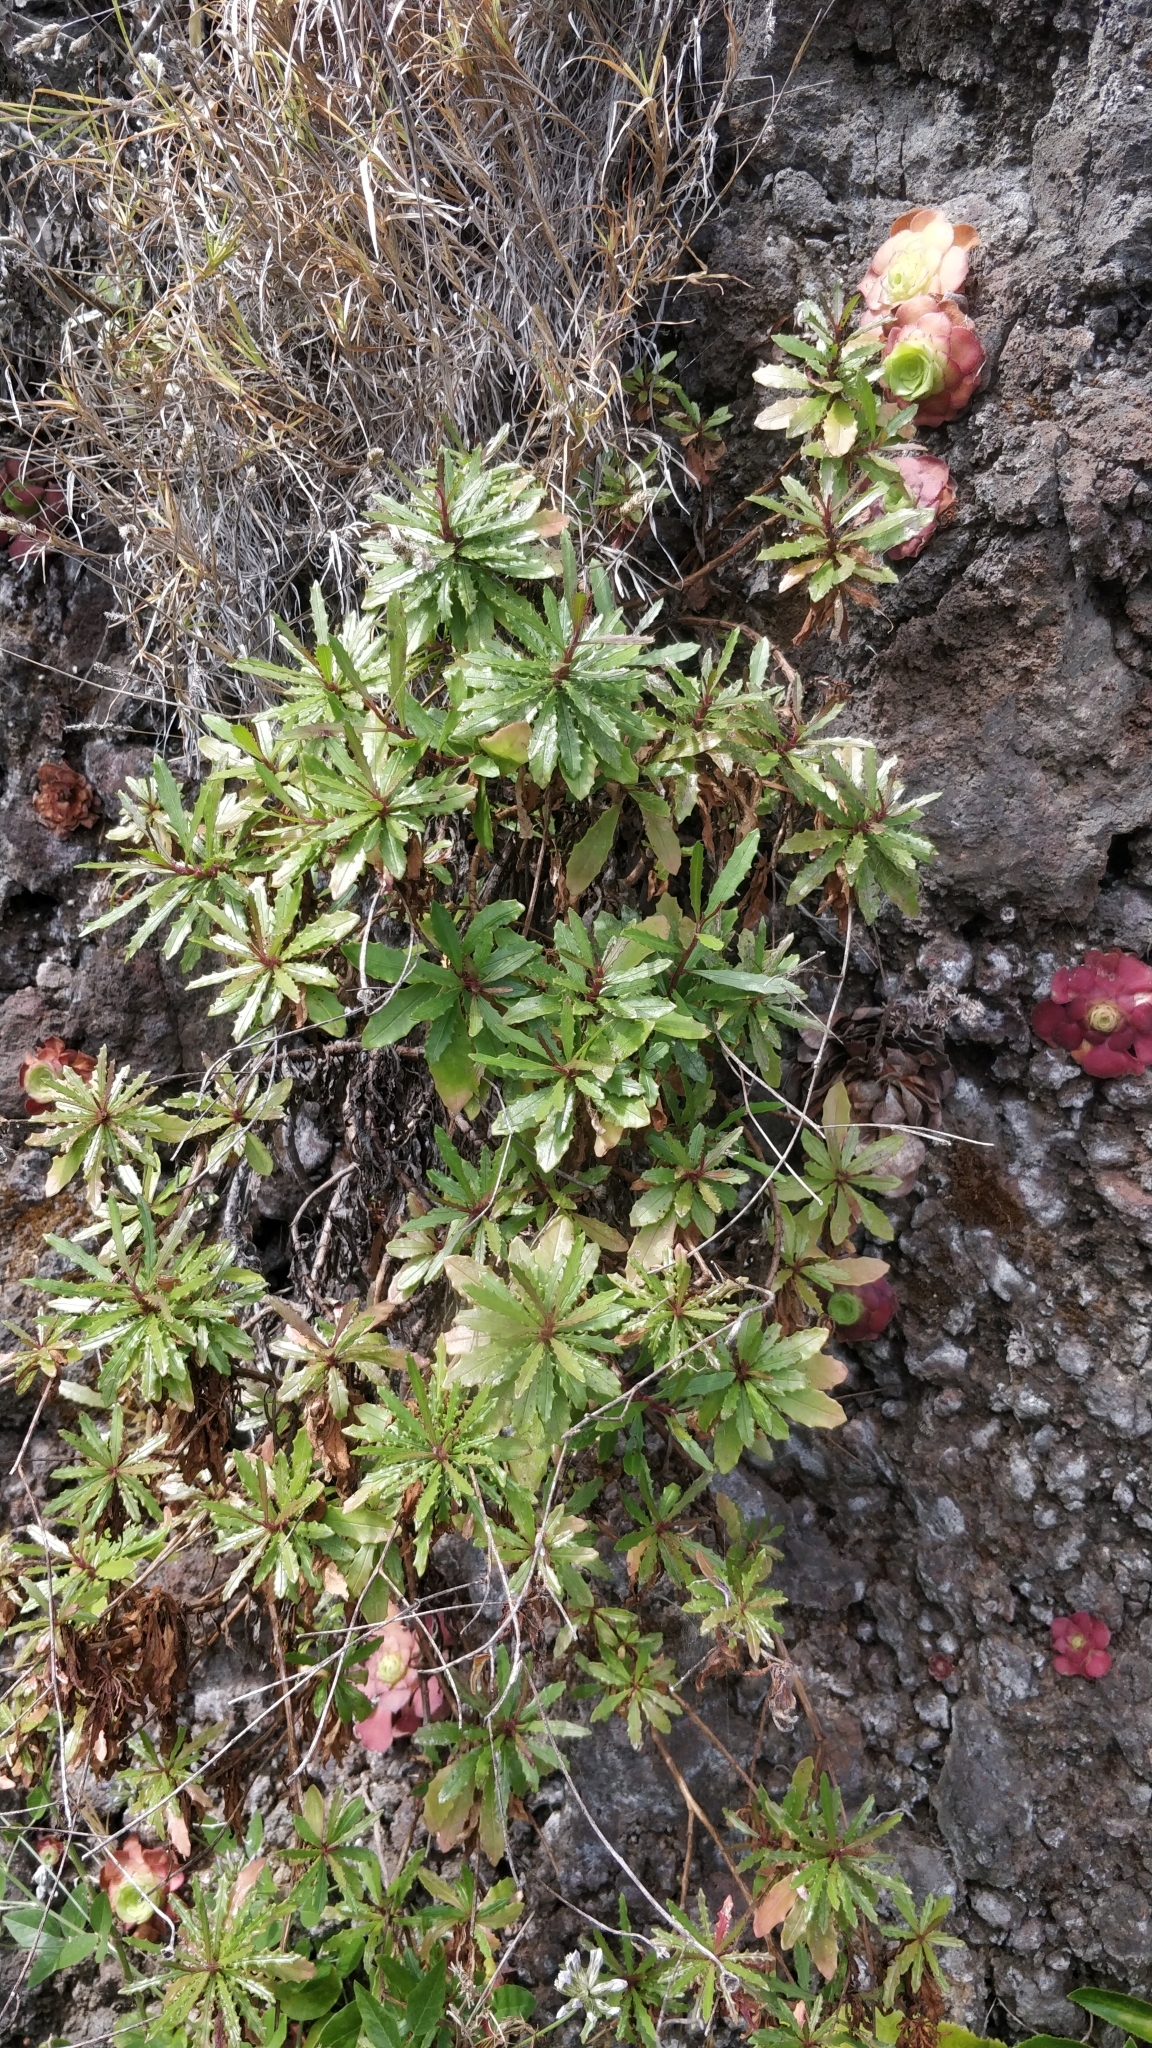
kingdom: Plantae
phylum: Tracheophyta
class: Magnoliopsida
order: Asterales
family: Asteraceae
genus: Tolpis
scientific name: Tolpis succulenta
